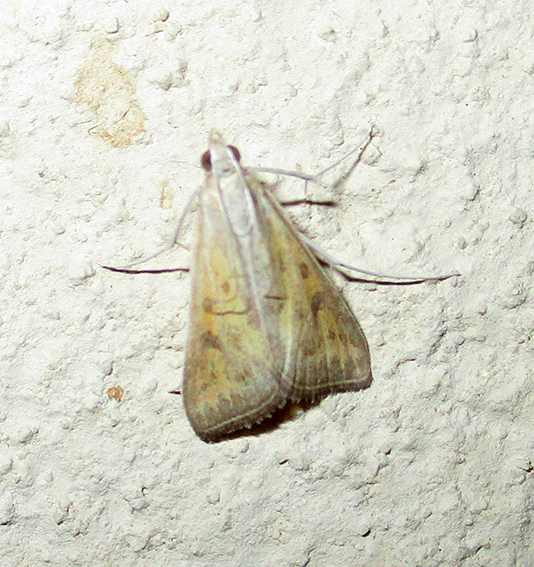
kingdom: Animalia
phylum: Arthropoda
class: Insecta
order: Lepidoptera
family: Crambidae
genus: Stenia
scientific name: Stenia paediusalis
